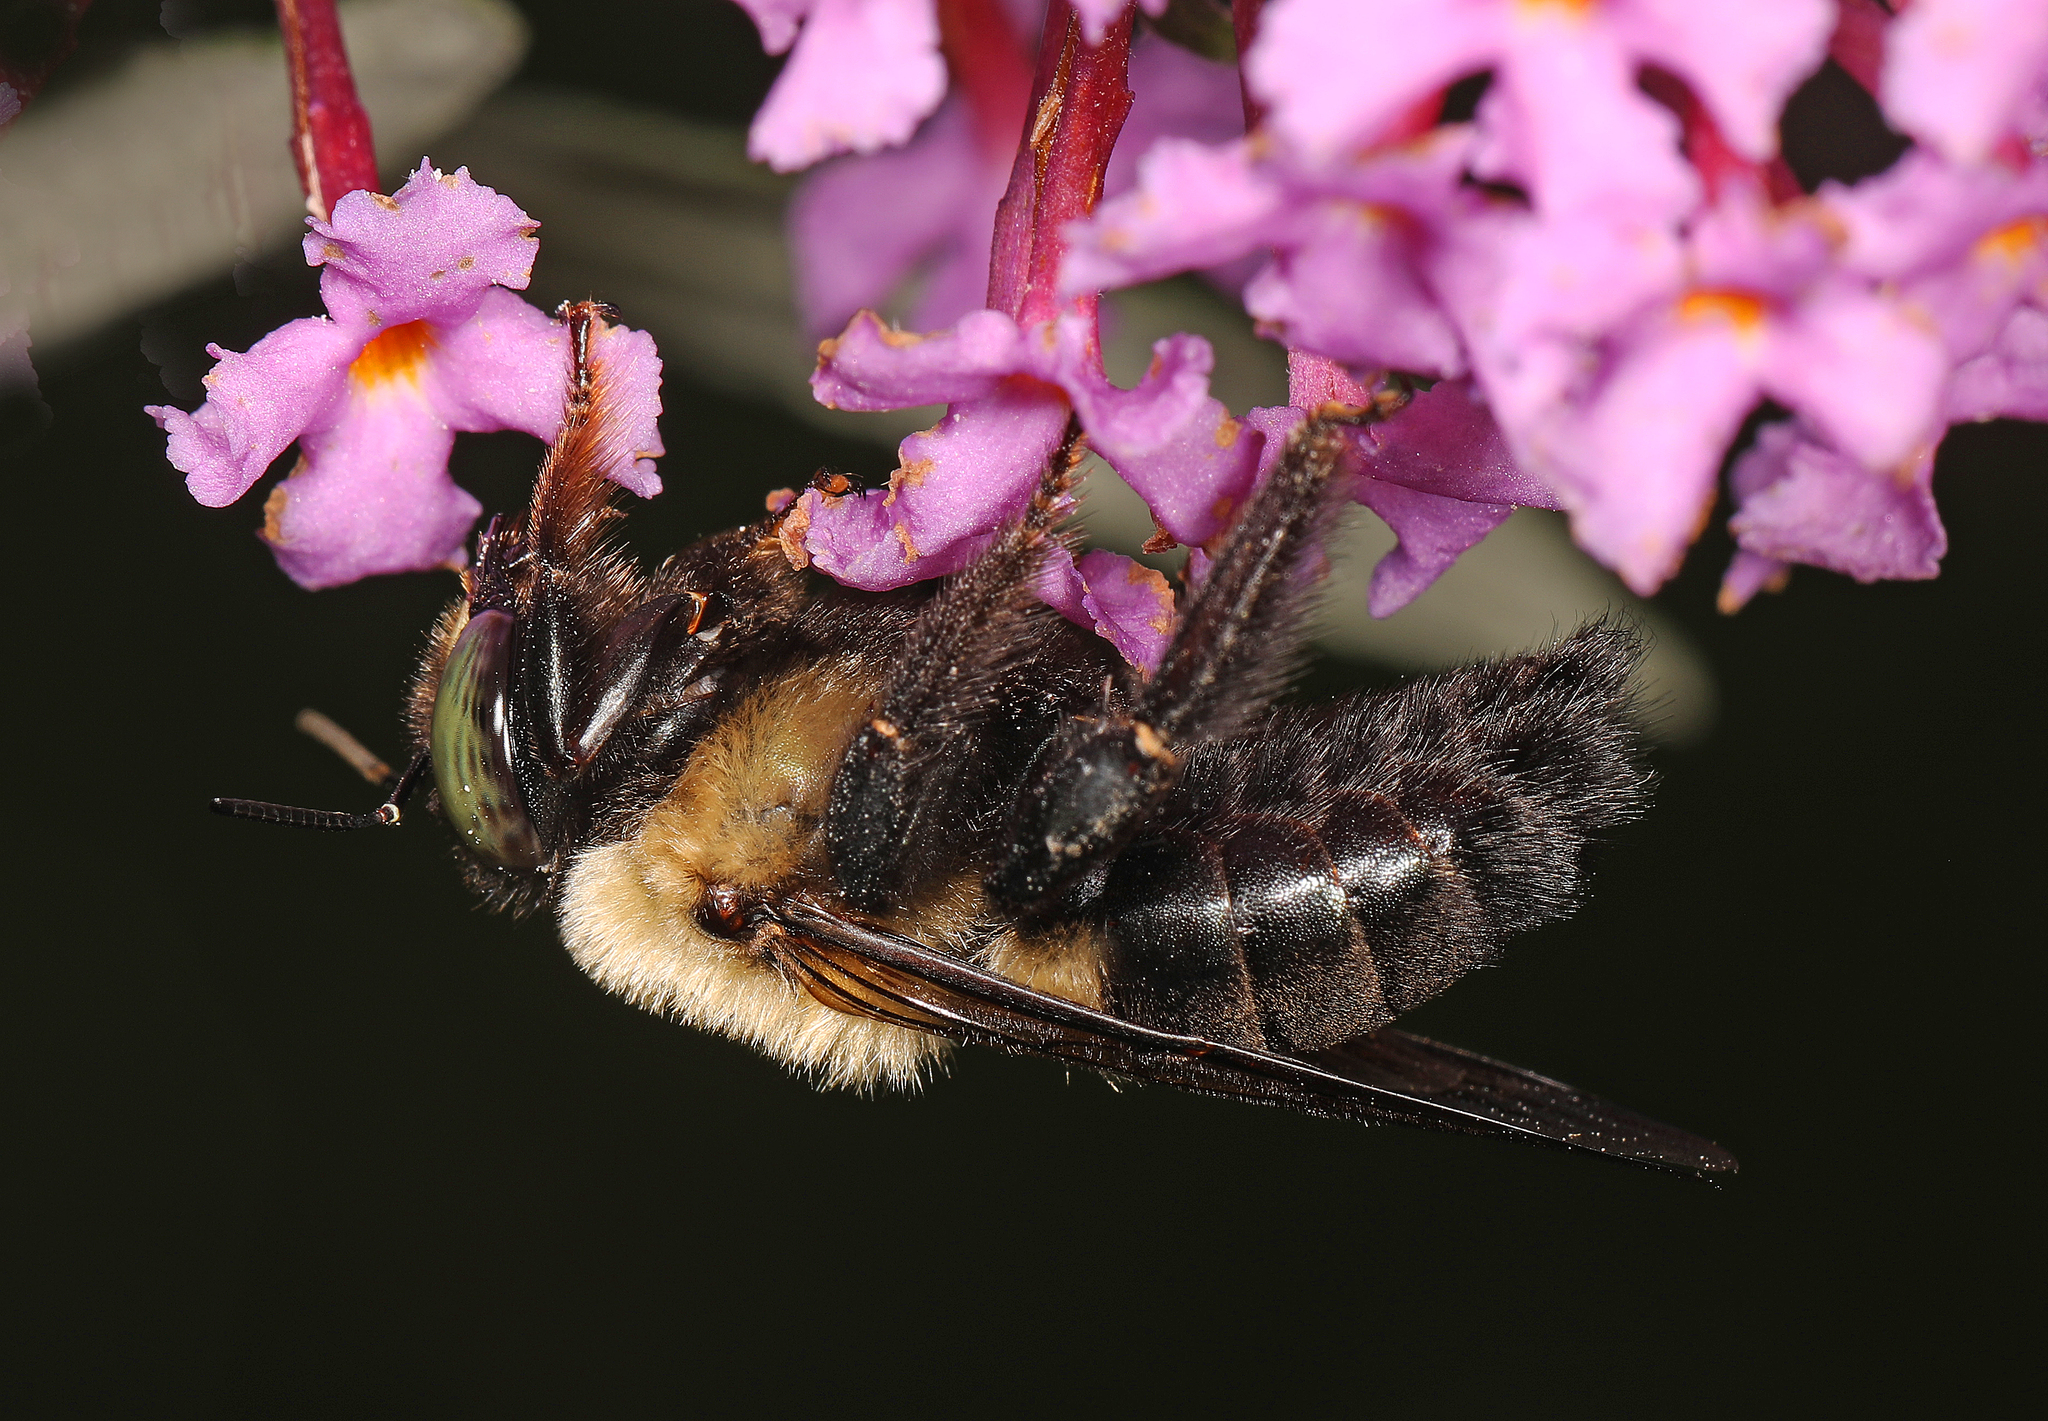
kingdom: Animalia
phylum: Arthropoda
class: Insecta
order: Hymenoptera
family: Apidae
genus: Xylocopa
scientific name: Xylocopa virginica
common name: Carpenter bee
